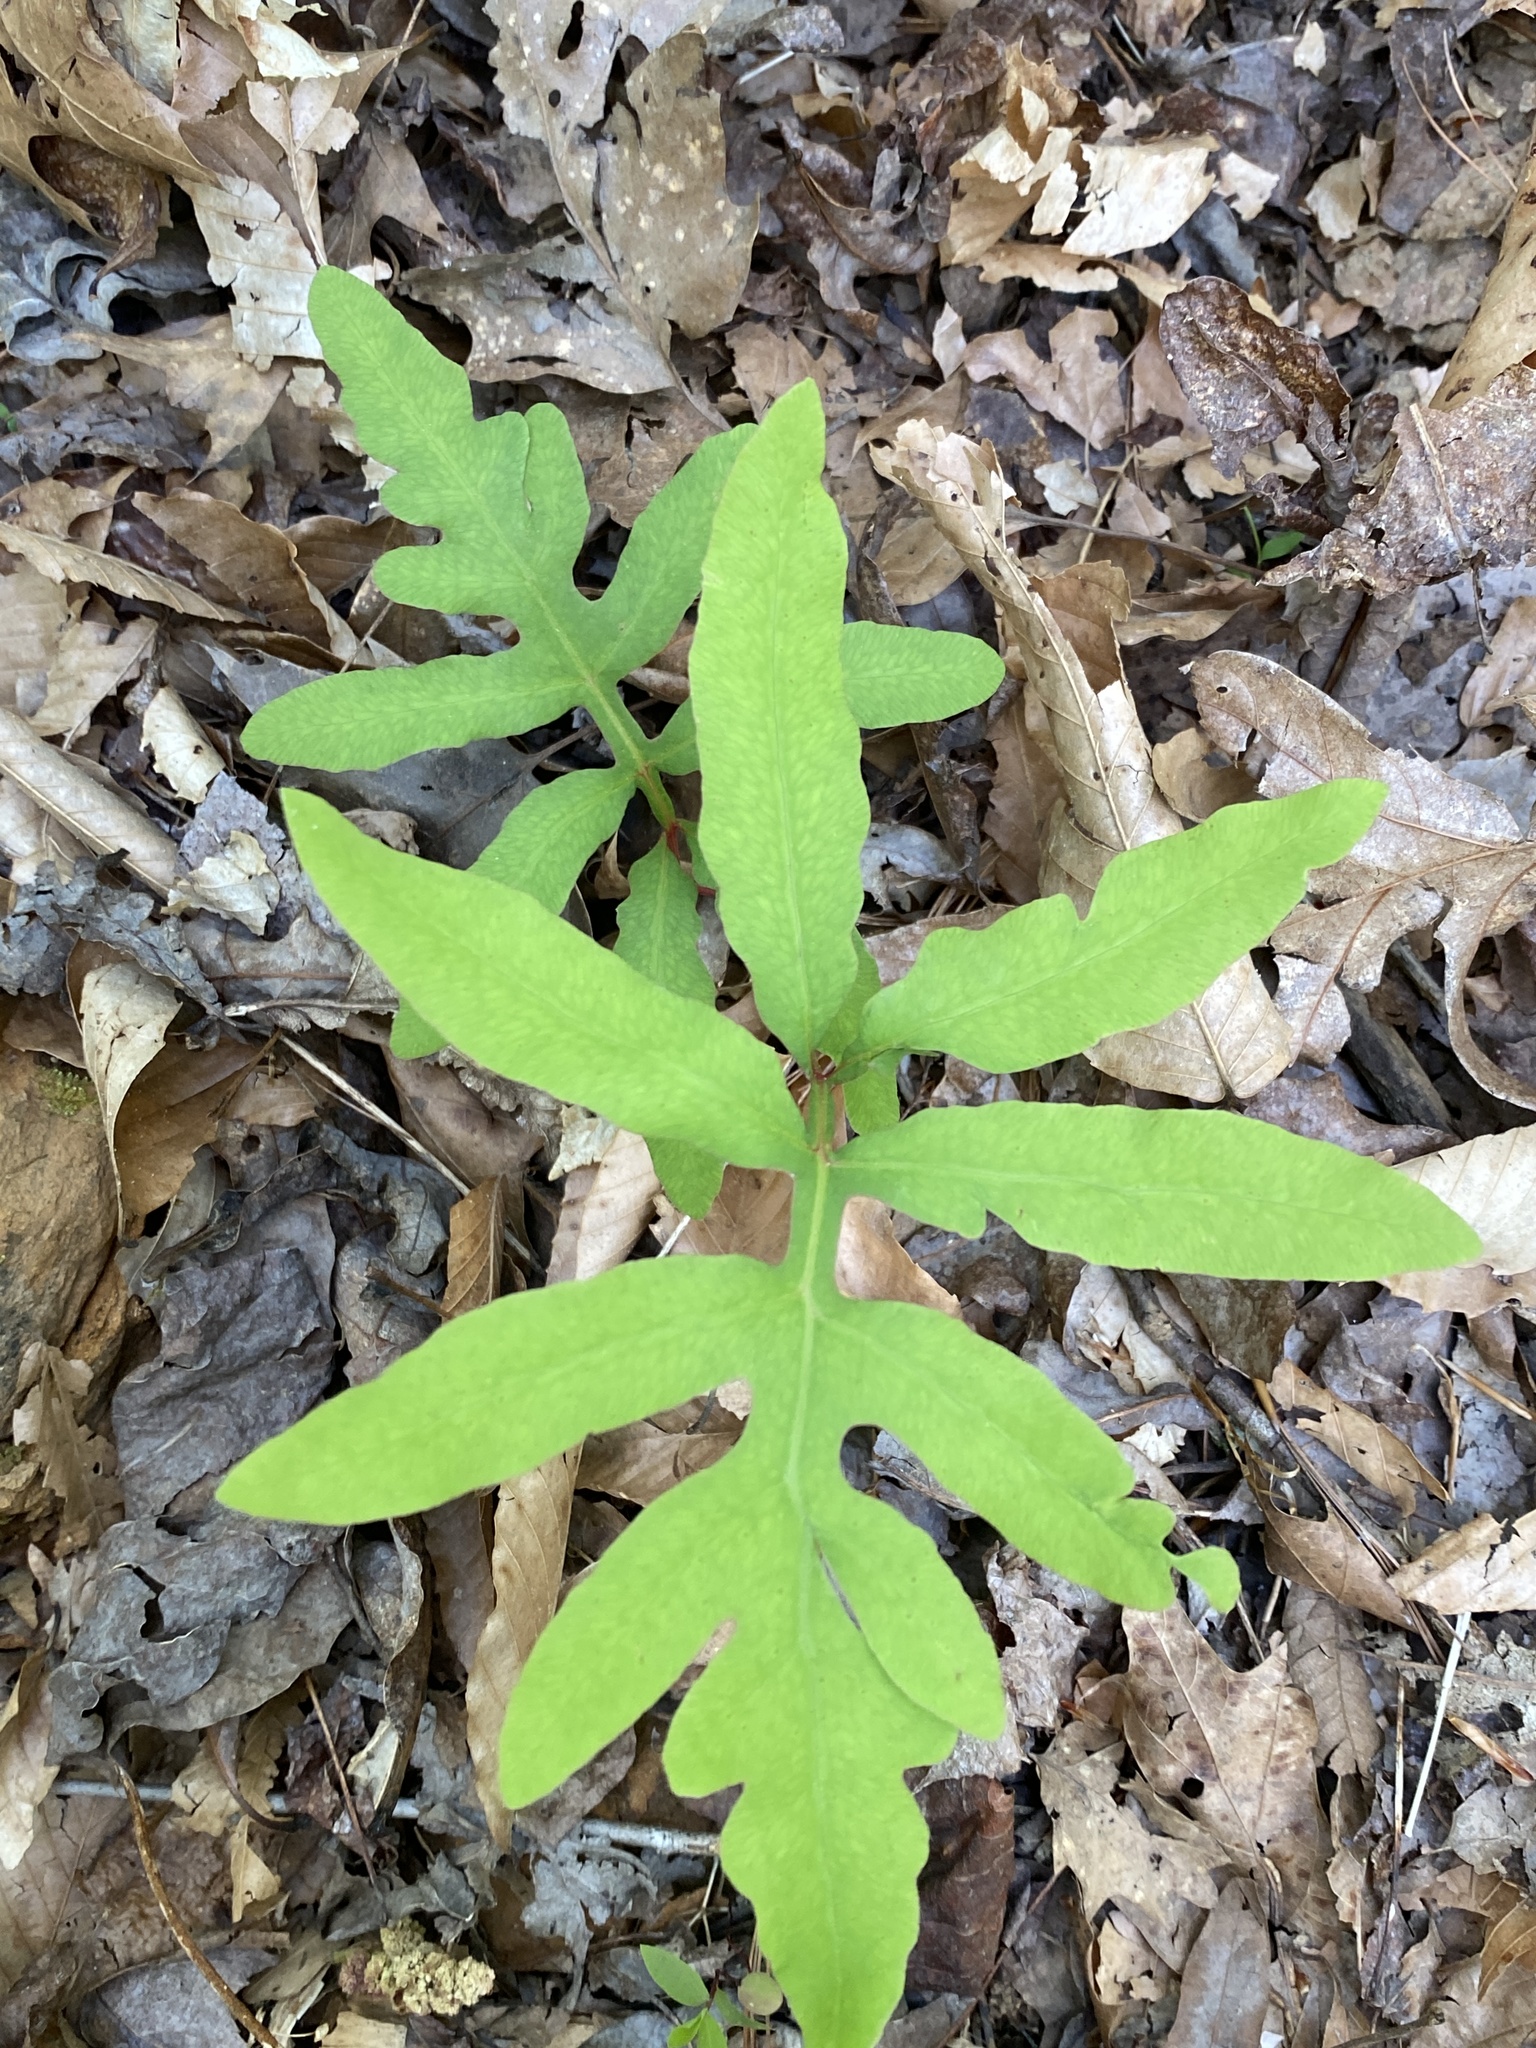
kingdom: Plantae
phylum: Tracheophyta
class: Polypodiopsida
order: Polypodiales
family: Onocleaceae
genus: Onoclea
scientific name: Onoclea sensibilis
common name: Sensitive fern
